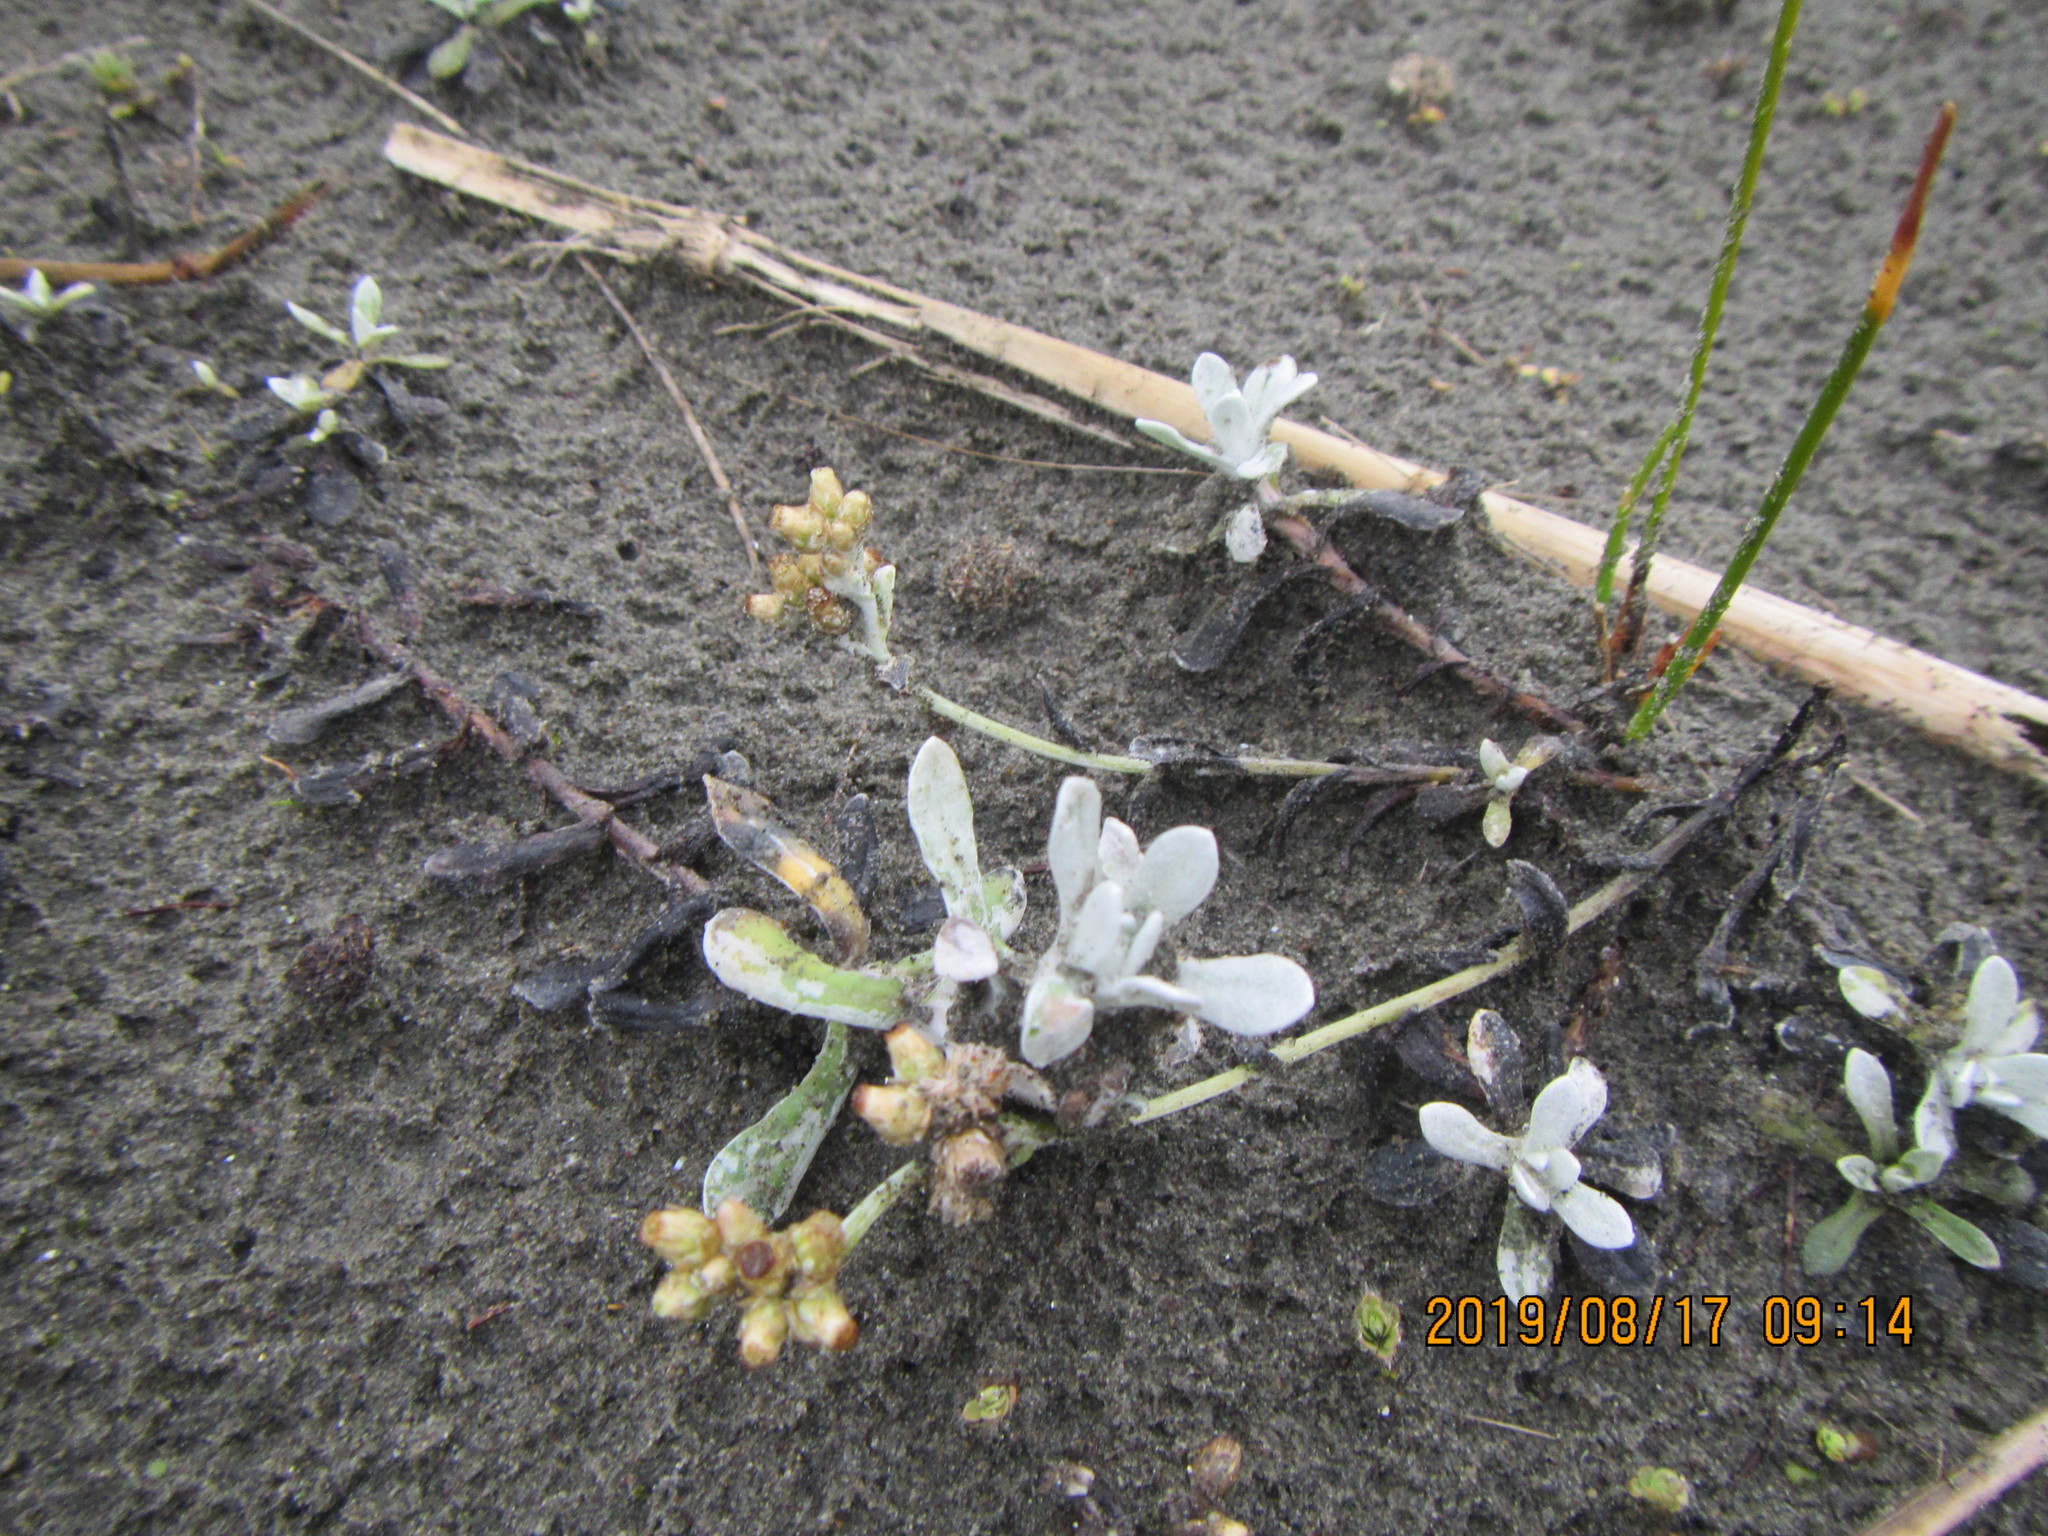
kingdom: Plantae
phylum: Tracheophyta
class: Magnoliopsida
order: Asterales
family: Asteraceae
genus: Helichrysum
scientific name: Helichrysum luteoalbum
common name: Daisy
